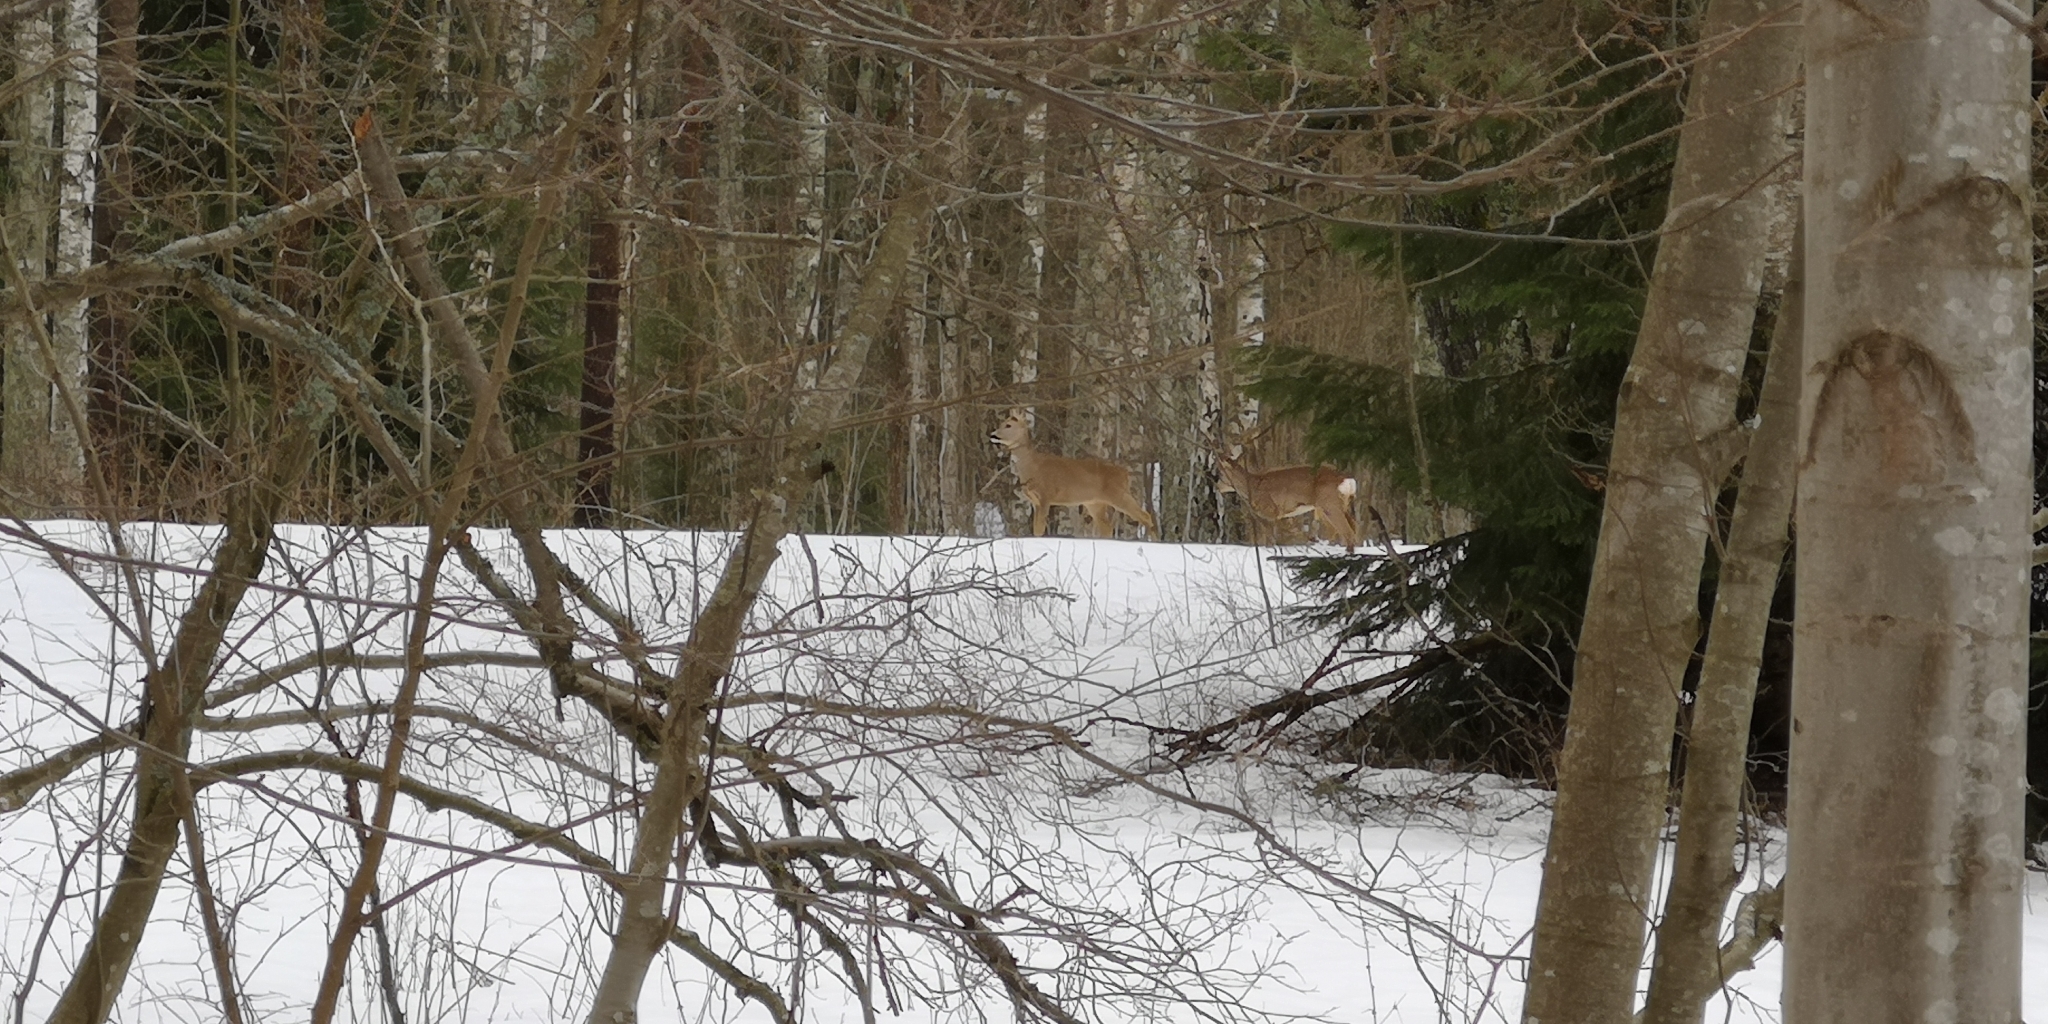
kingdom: Animalia
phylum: Chordata
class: Mammalia
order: Artiodactyla
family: Cervidae
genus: Capreolus
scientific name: Capreolus capreolus
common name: Western roe deer
